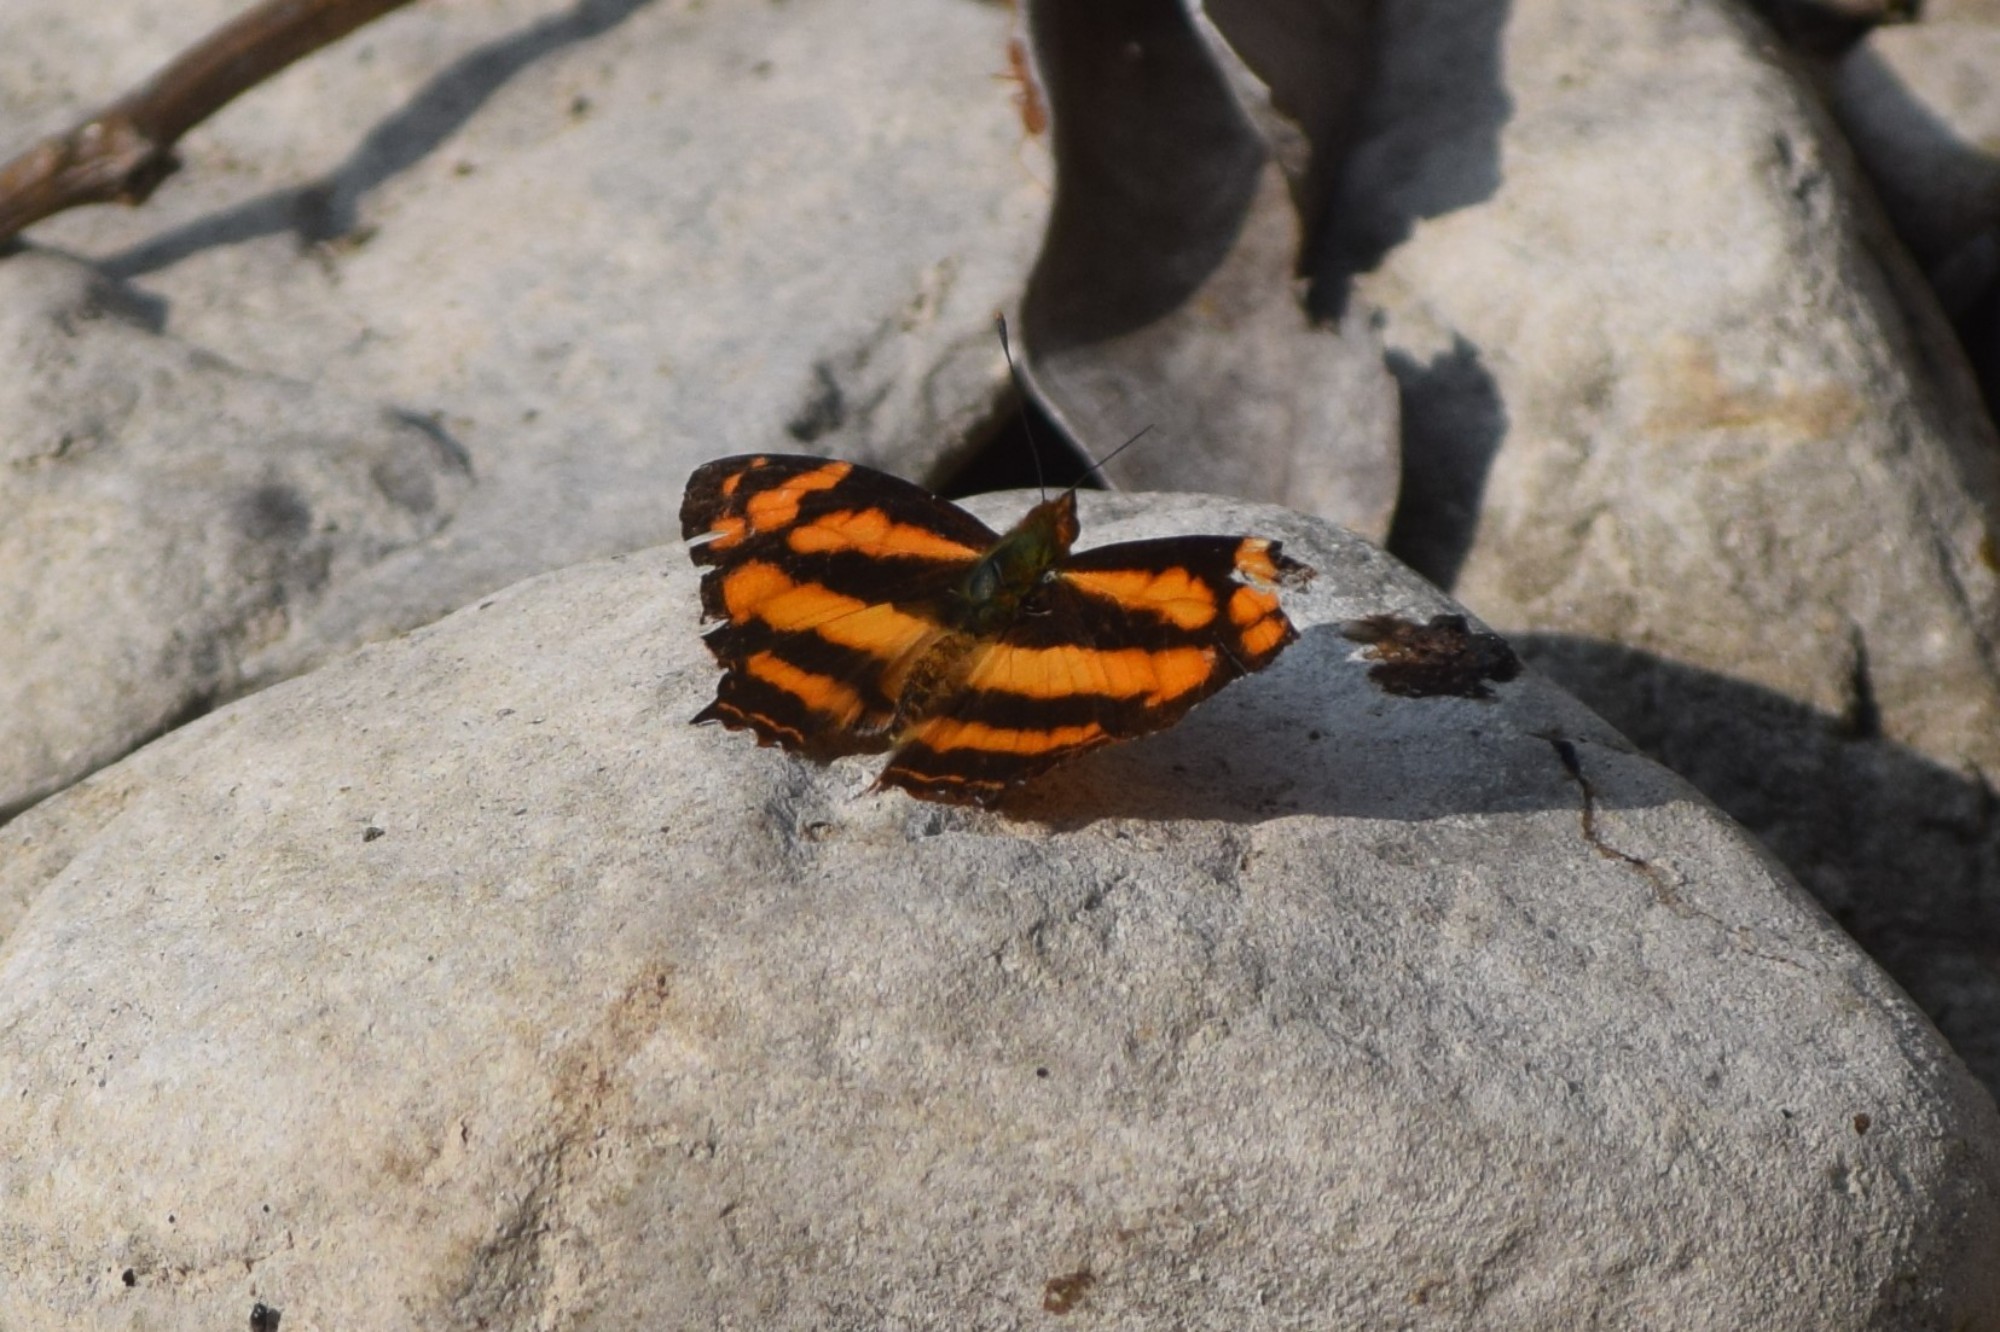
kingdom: Animalia
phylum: Arthropoda
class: Insecta
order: Lepidoptera
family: Nymphalidae
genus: Symbrenthia
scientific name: Symbrenthia hypselis
